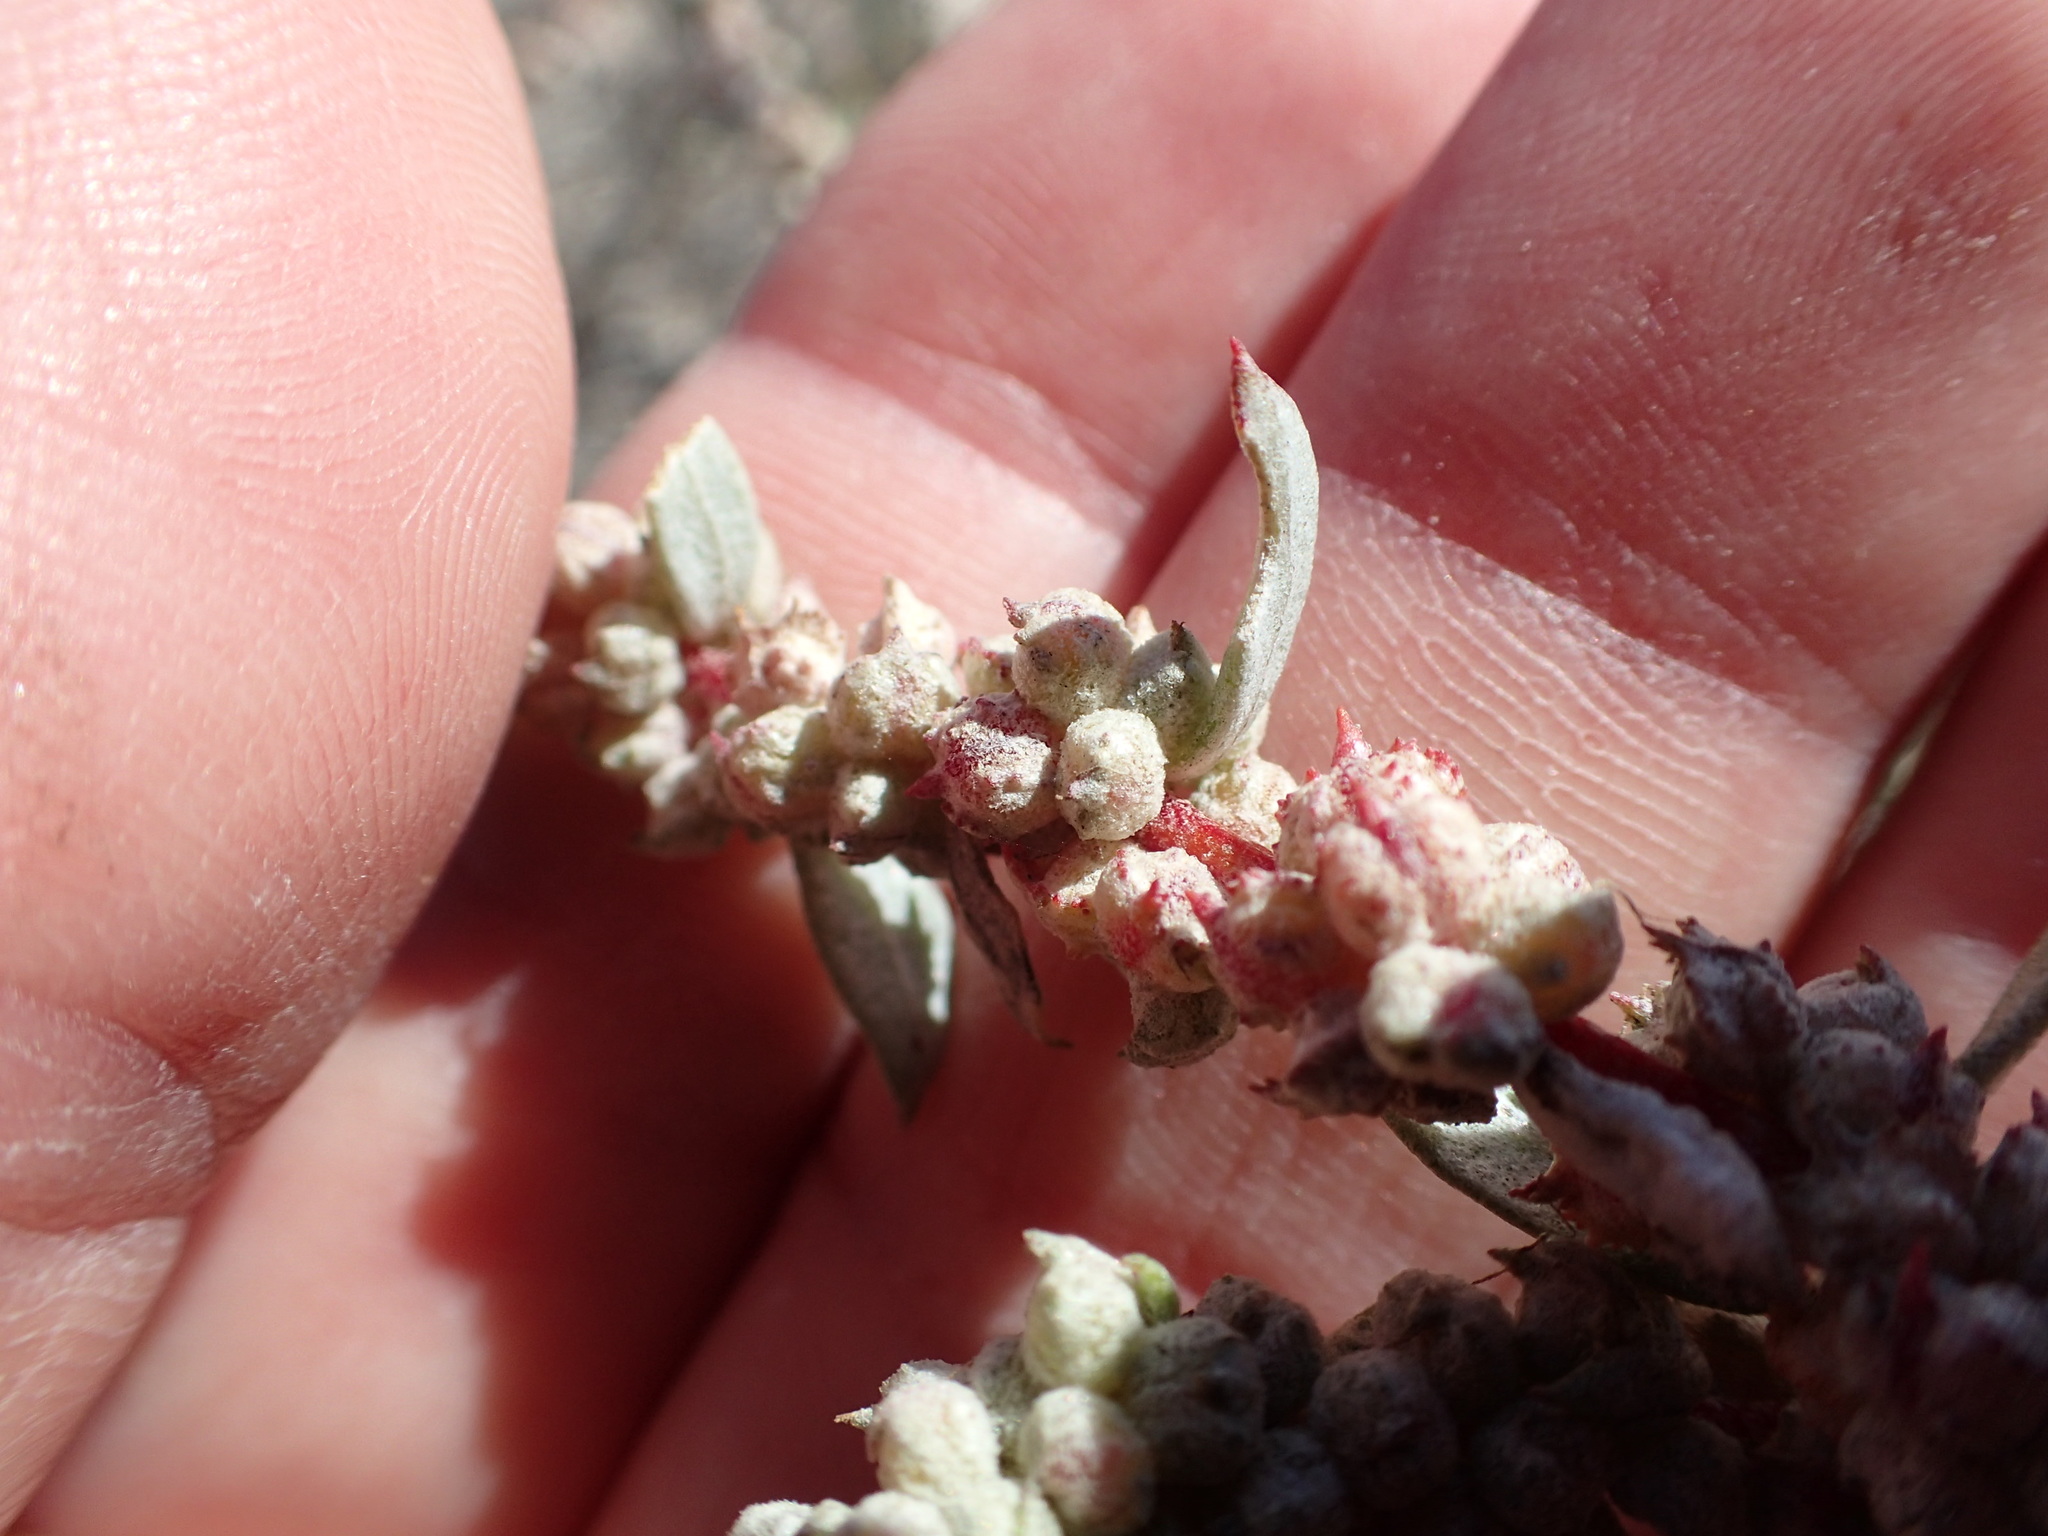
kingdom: Plantae
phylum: Tracheophyta
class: Magnoliopsida
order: Caryophyllales
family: Amaranthaceae
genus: Atriplex
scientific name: Atriplex barclayana
